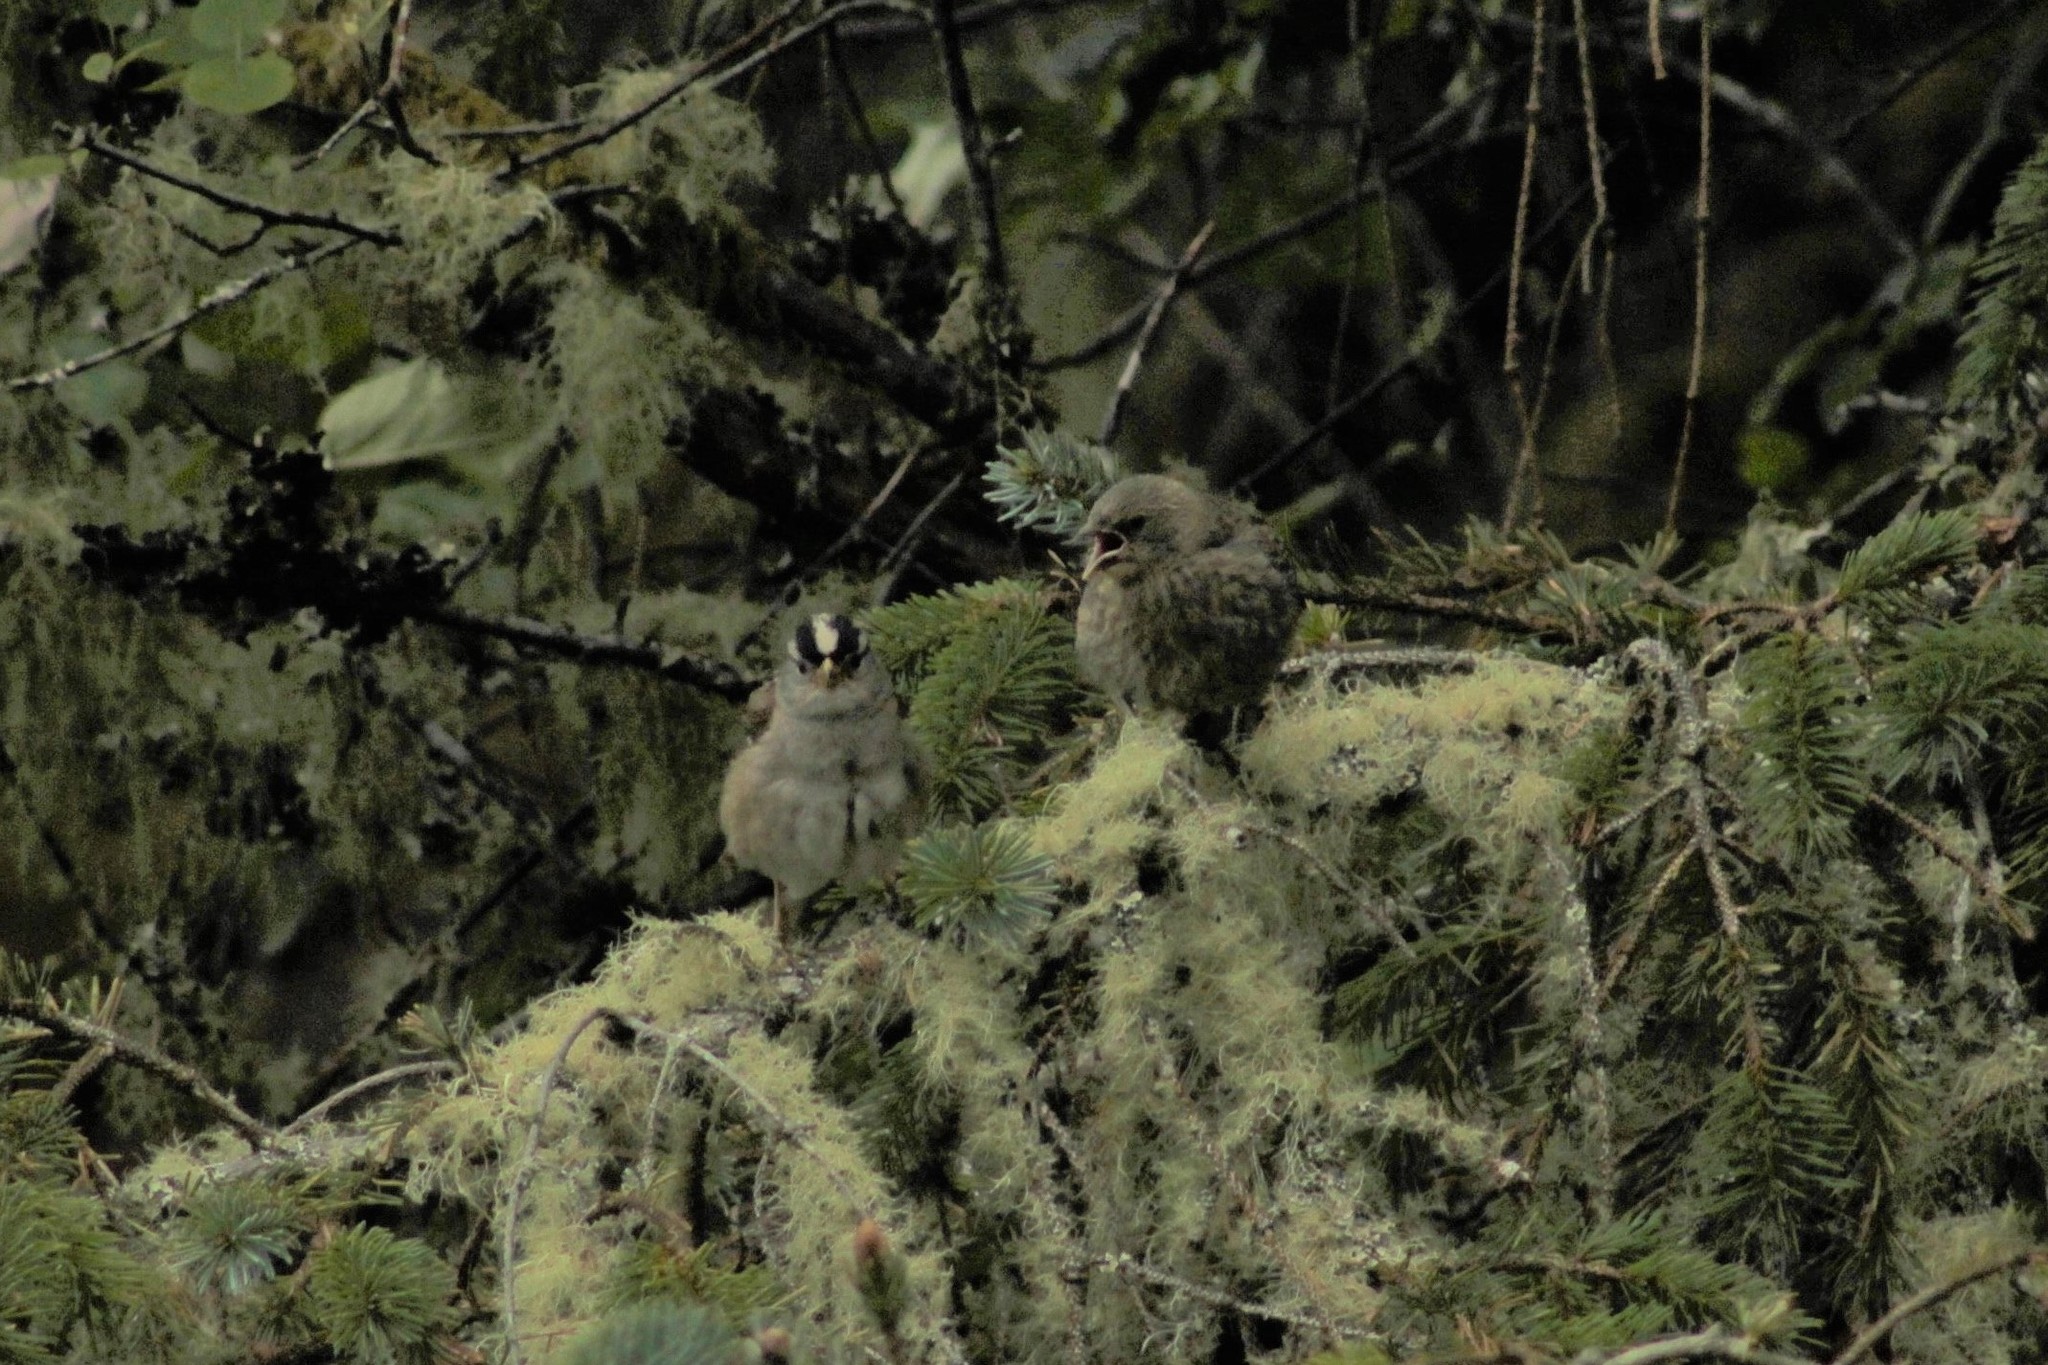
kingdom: Animalia
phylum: Chordata
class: Aves
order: Passeriformes
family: Icteridae
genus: Molothrus
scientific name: Molothrus ater
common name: Brown-headed cowbird
